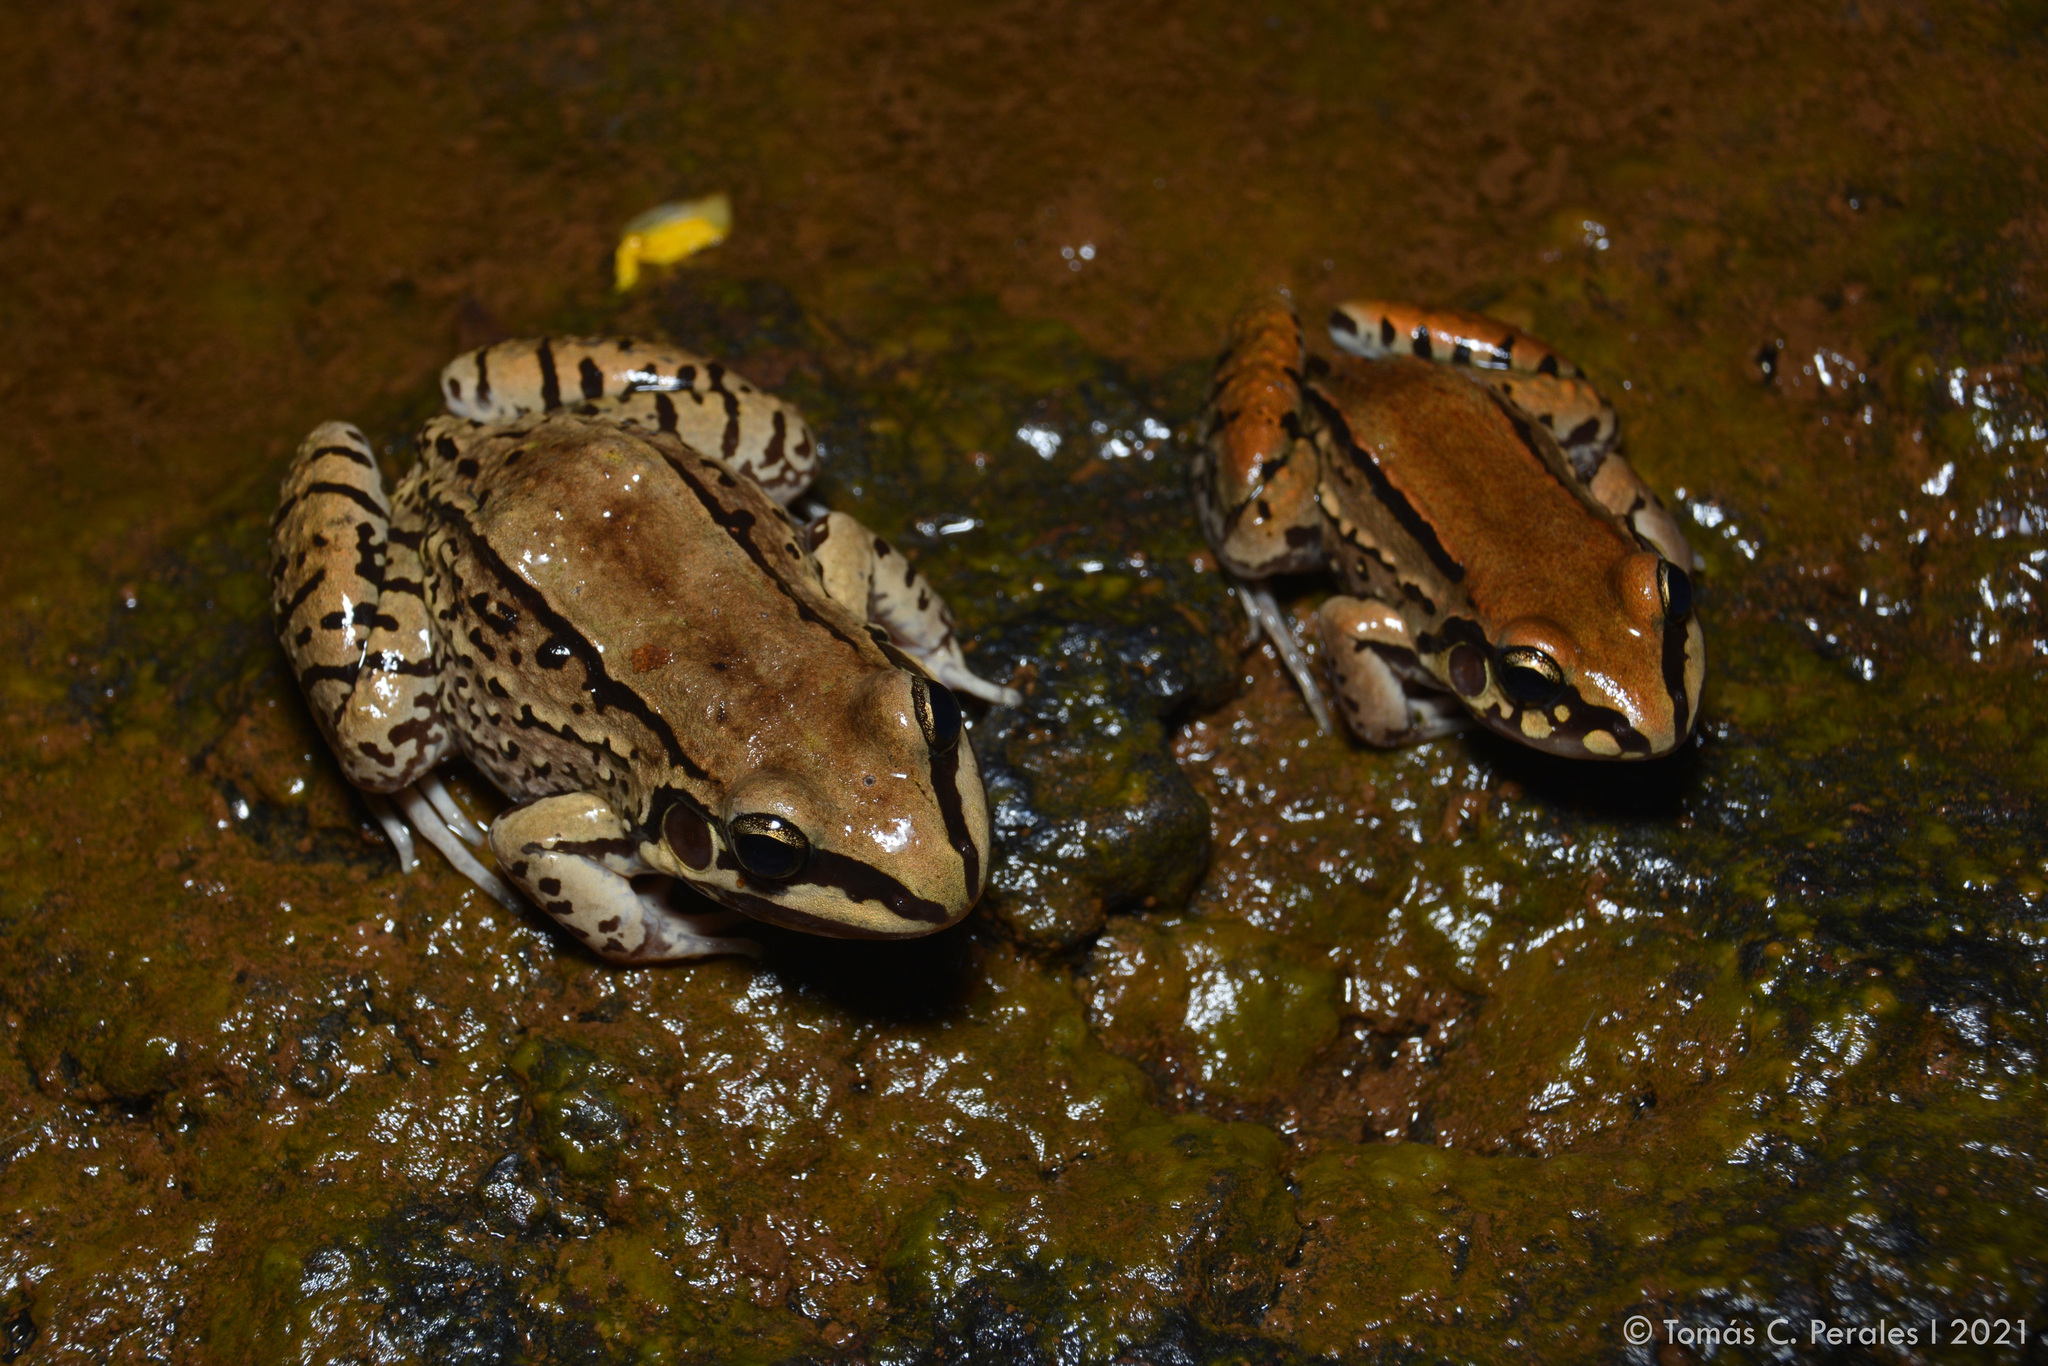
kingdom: Animalia
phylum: Chordata
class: Amphibia
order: Anura
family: Leptodactylidae
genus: Leptodactylus
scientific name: Leptodactylus mystacinus
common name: Moustached frog
